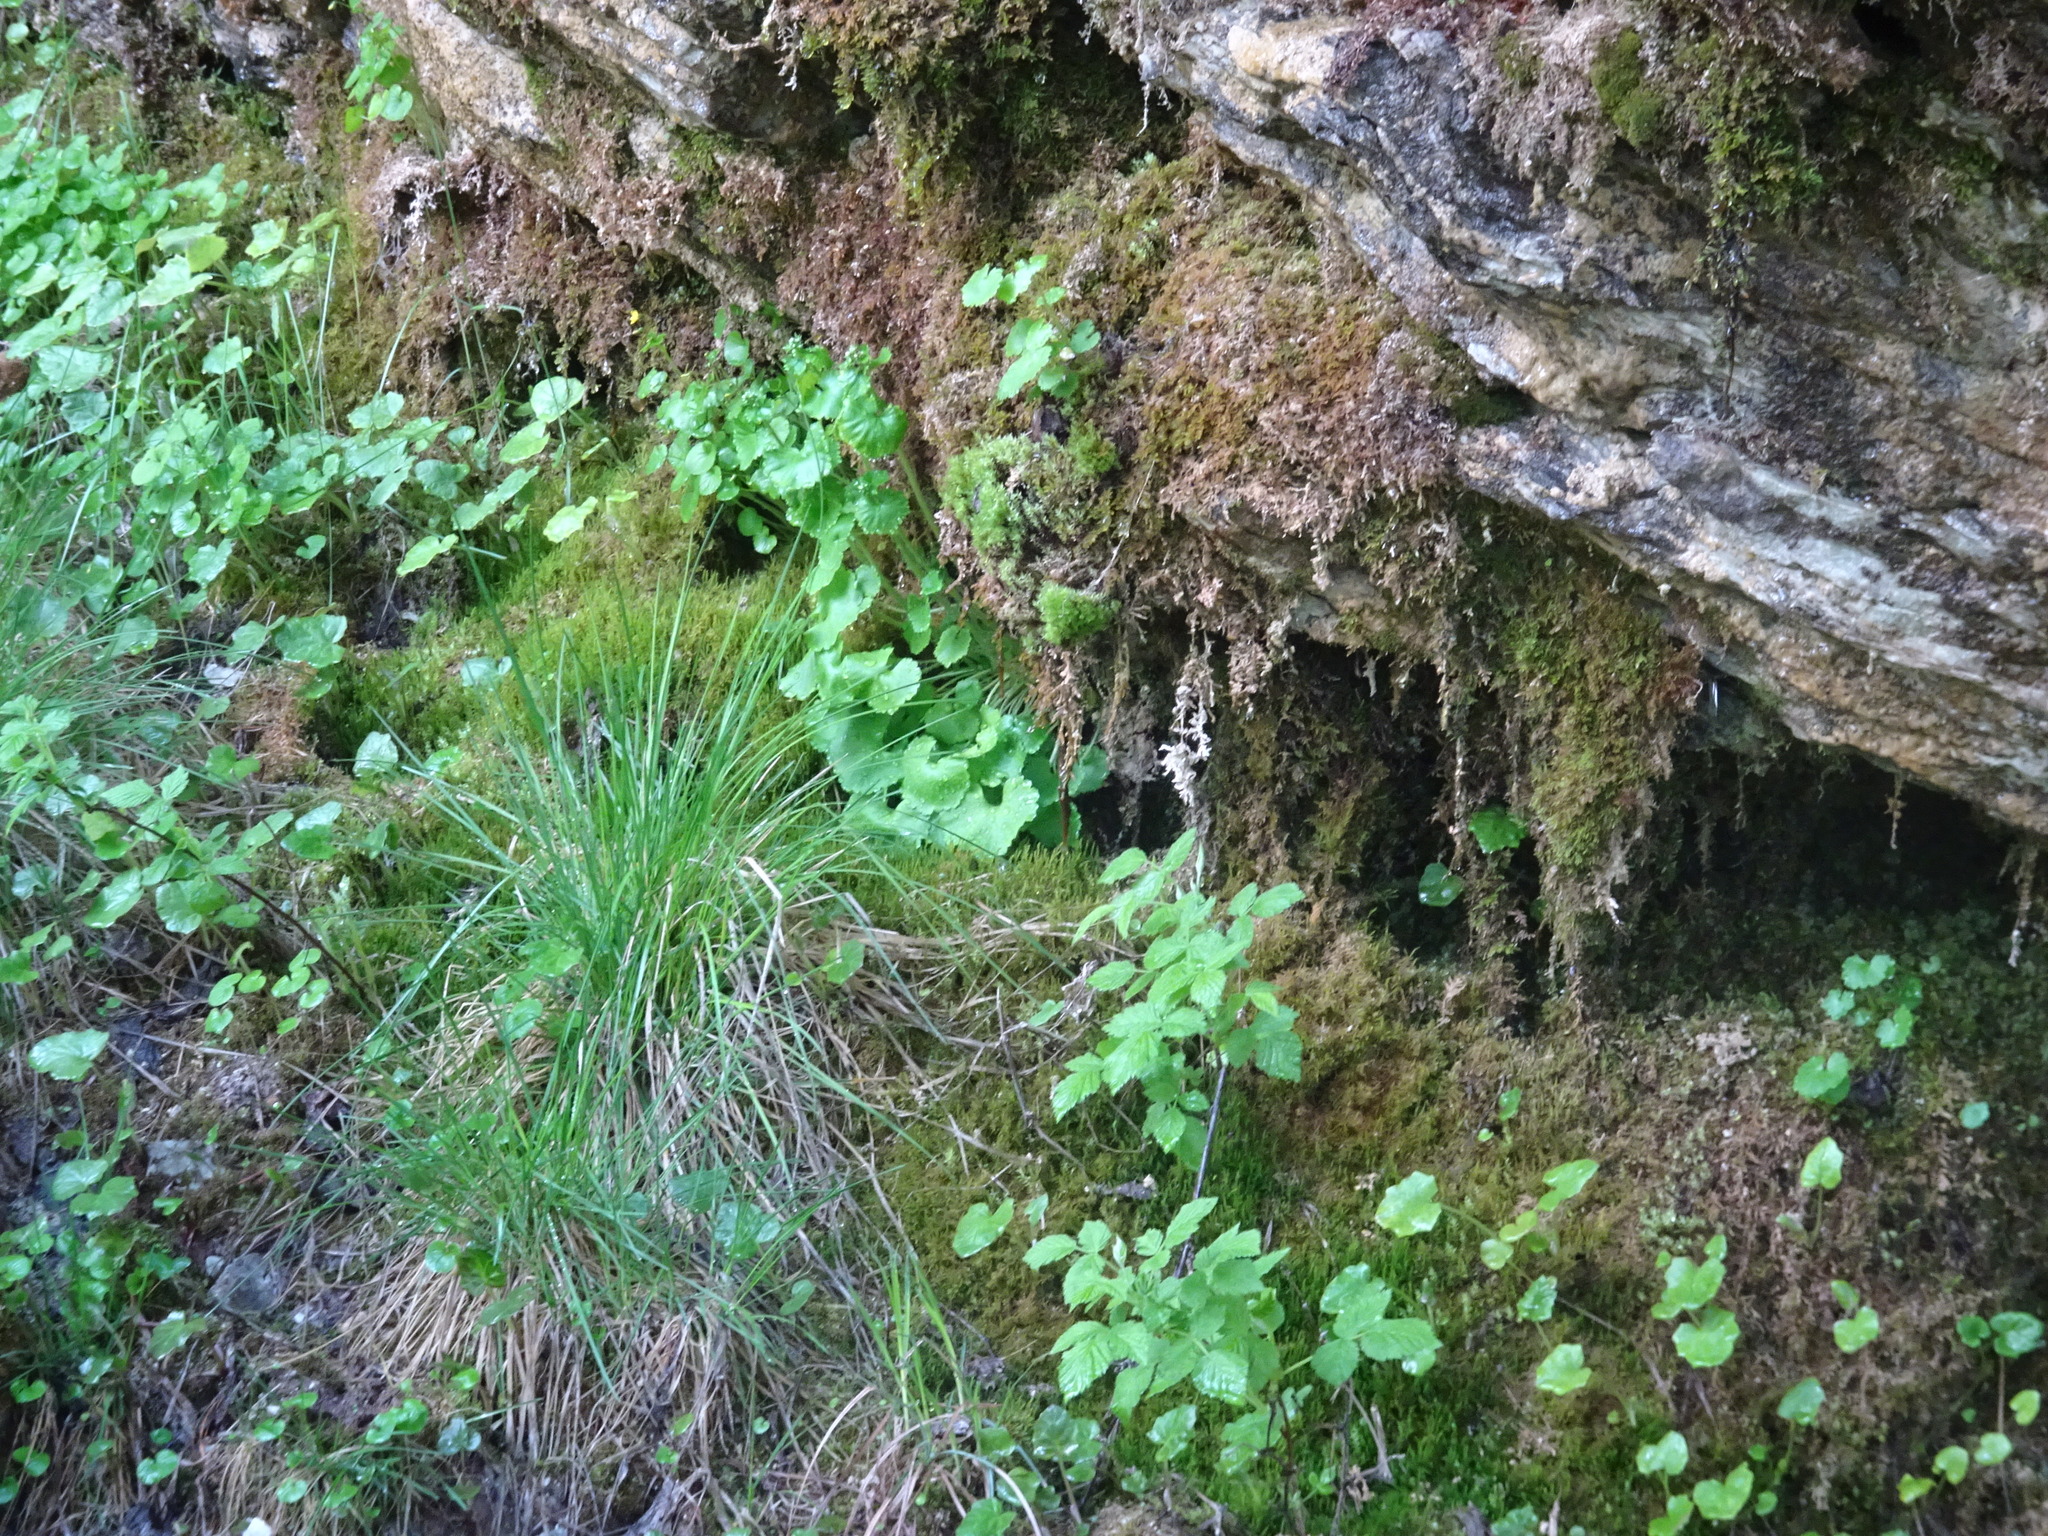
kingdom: Plantae
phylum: Tracheophyta
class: Magnoliopsida
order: Saxifragales
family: Saxifragaceae
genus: Saxifraga
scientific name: Saxifraga rotundifolia
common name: Round-leaved saxifrage
